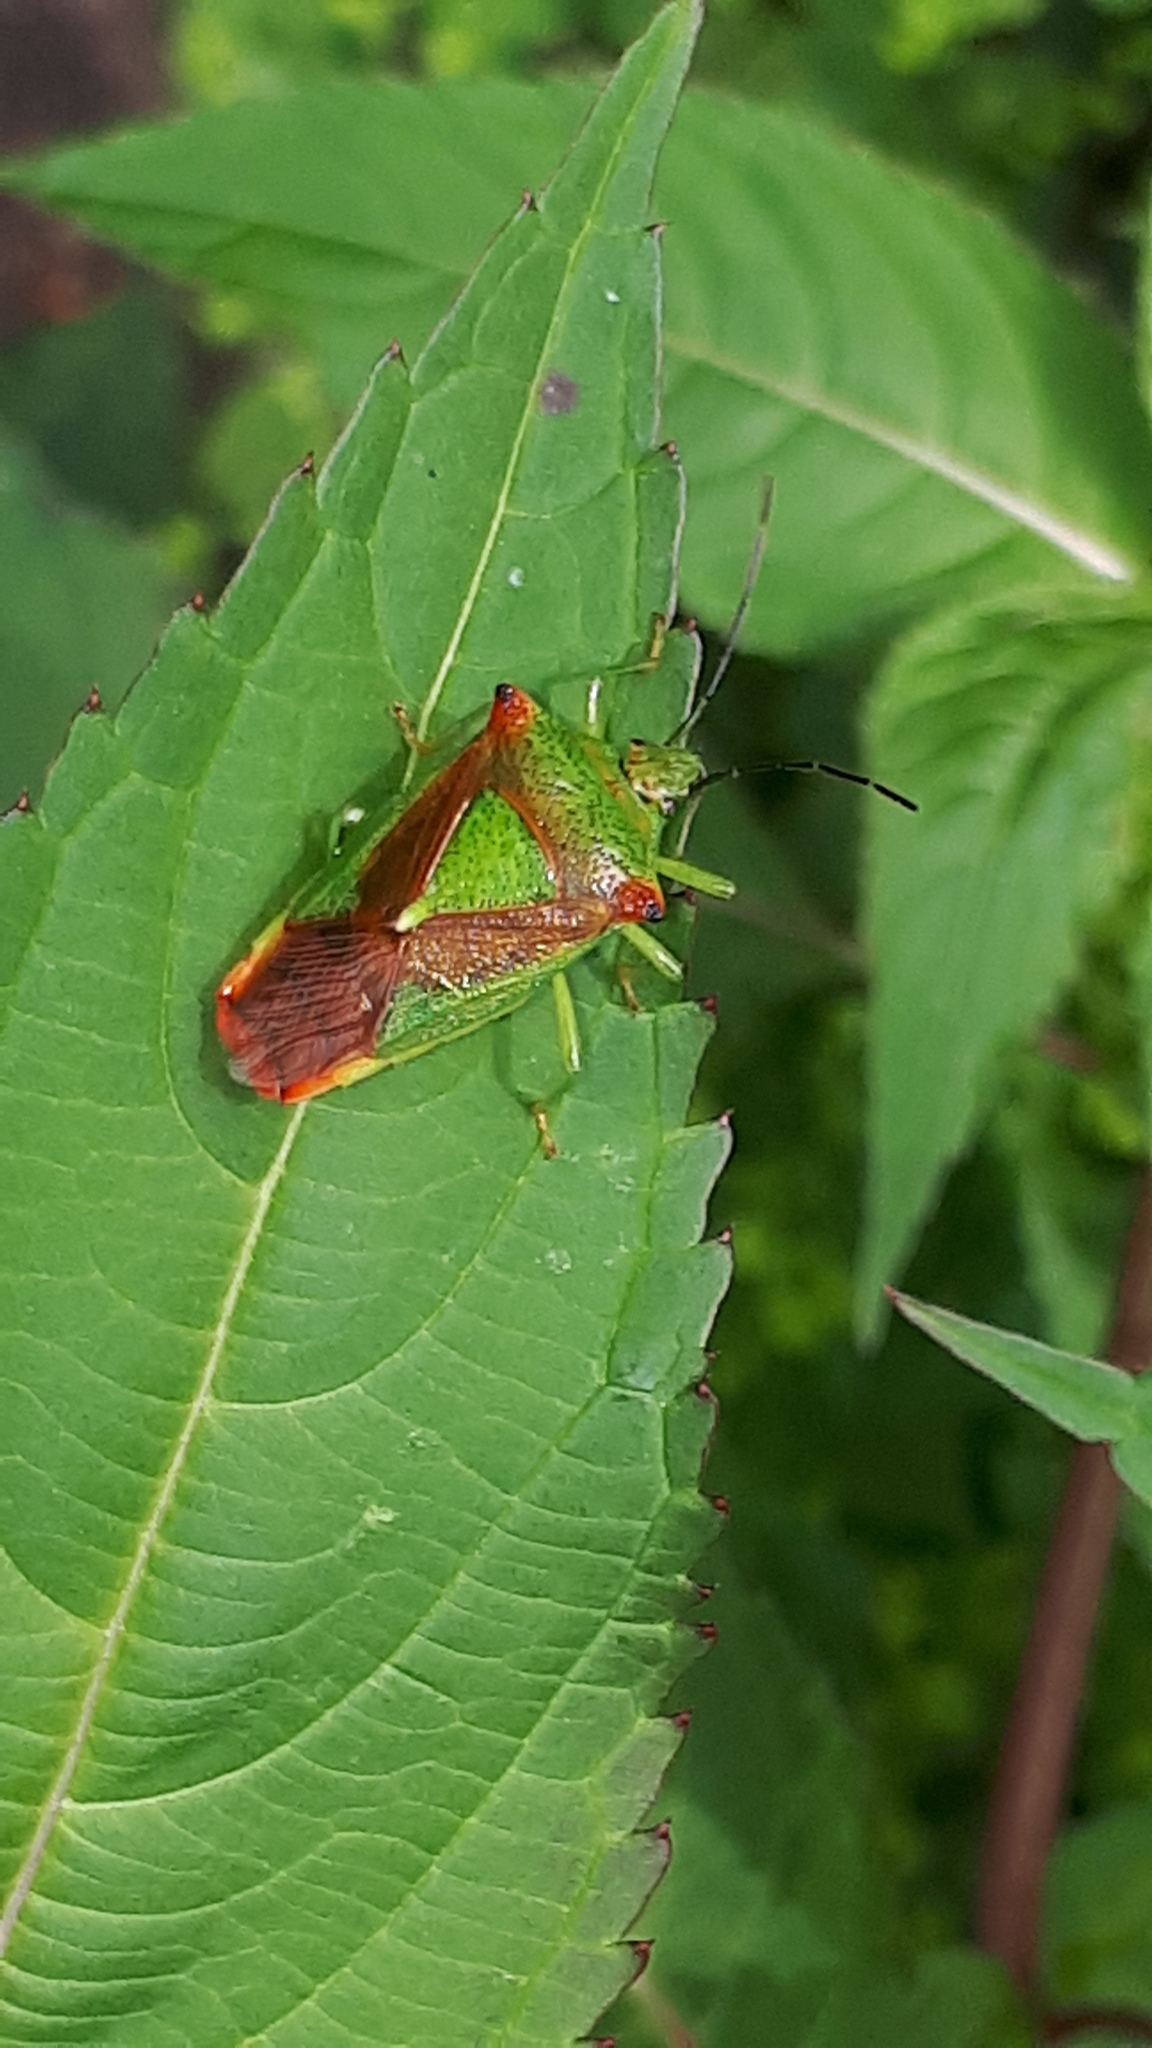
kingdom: Animalia
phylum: Arthropoda
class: Insecta
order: Hemiptera
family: Acanthosomatidae
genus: Acanthosoma
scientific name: Acanthosoma haemorrhoidale
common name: Hawthorn shieldbug
